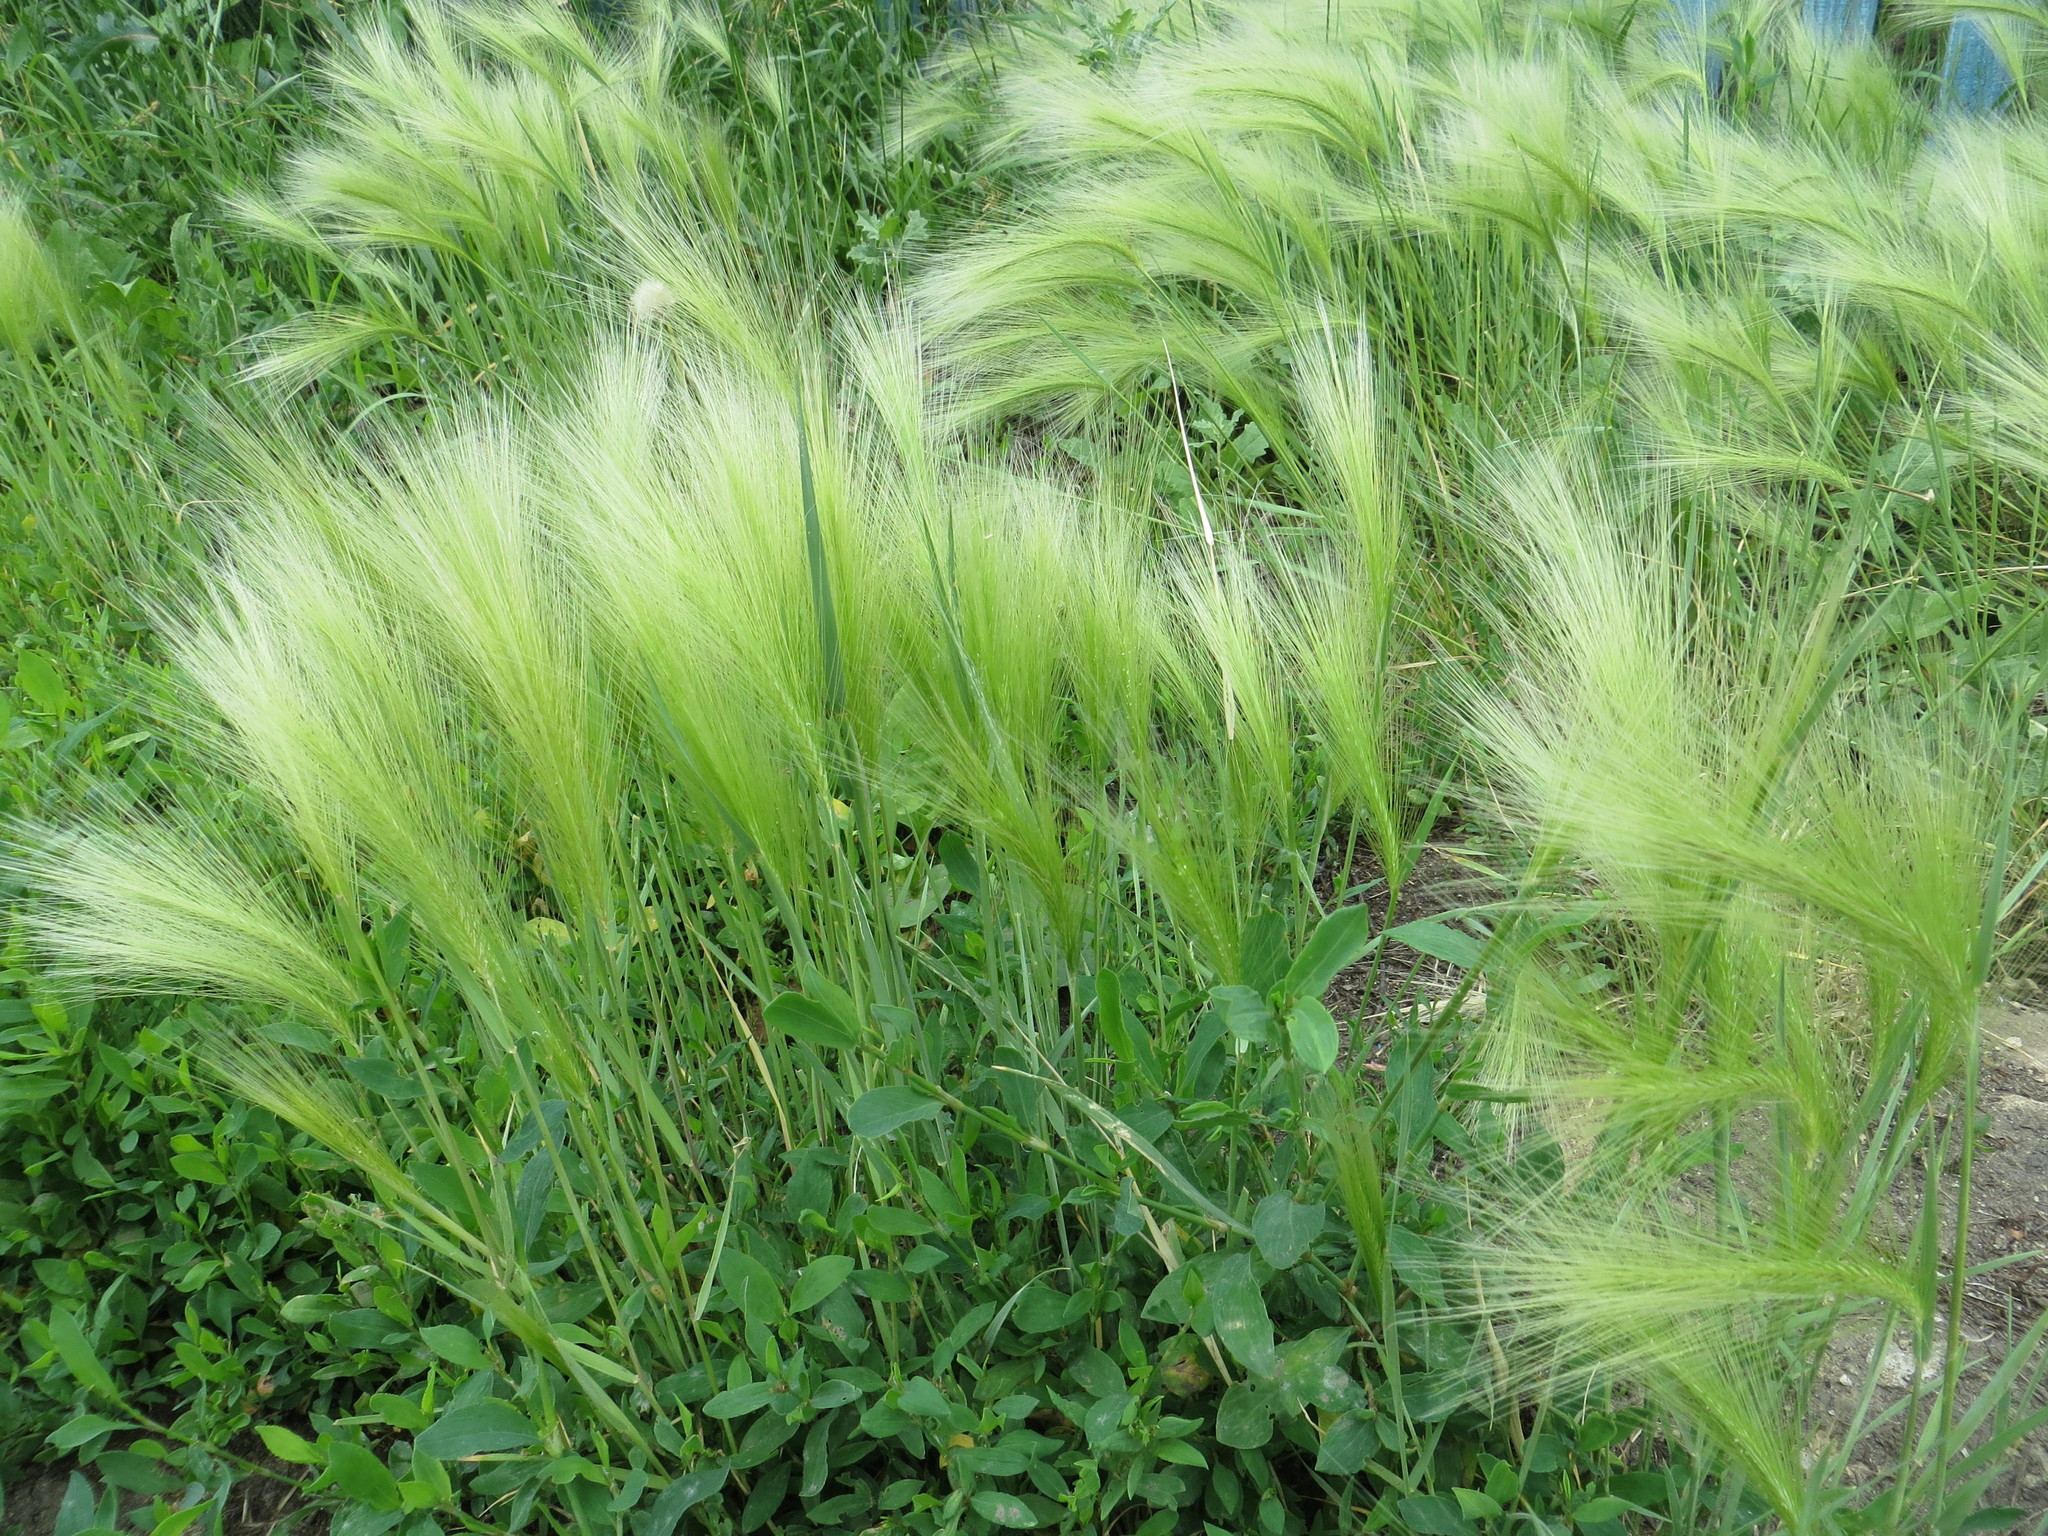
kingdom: Plantae
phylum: Tracheophyta
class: Liliopsida
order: Poales
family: Poaceae
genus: Hordeum
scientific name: Hordeum jubatum
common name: Foxtail barley
